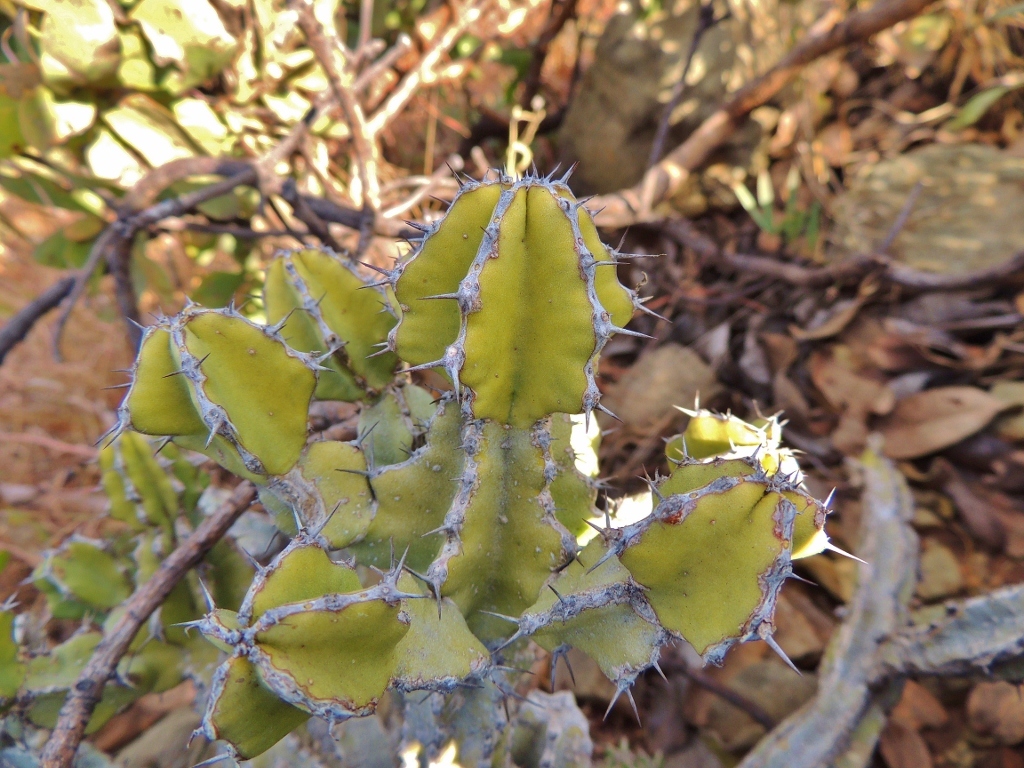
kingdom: Plantae
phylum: Tracheophyta
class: Magnoliopsida
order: Malpighiales
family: Euphorbiaceae
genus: Euphorbia
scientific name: Euphorbia memoralis
